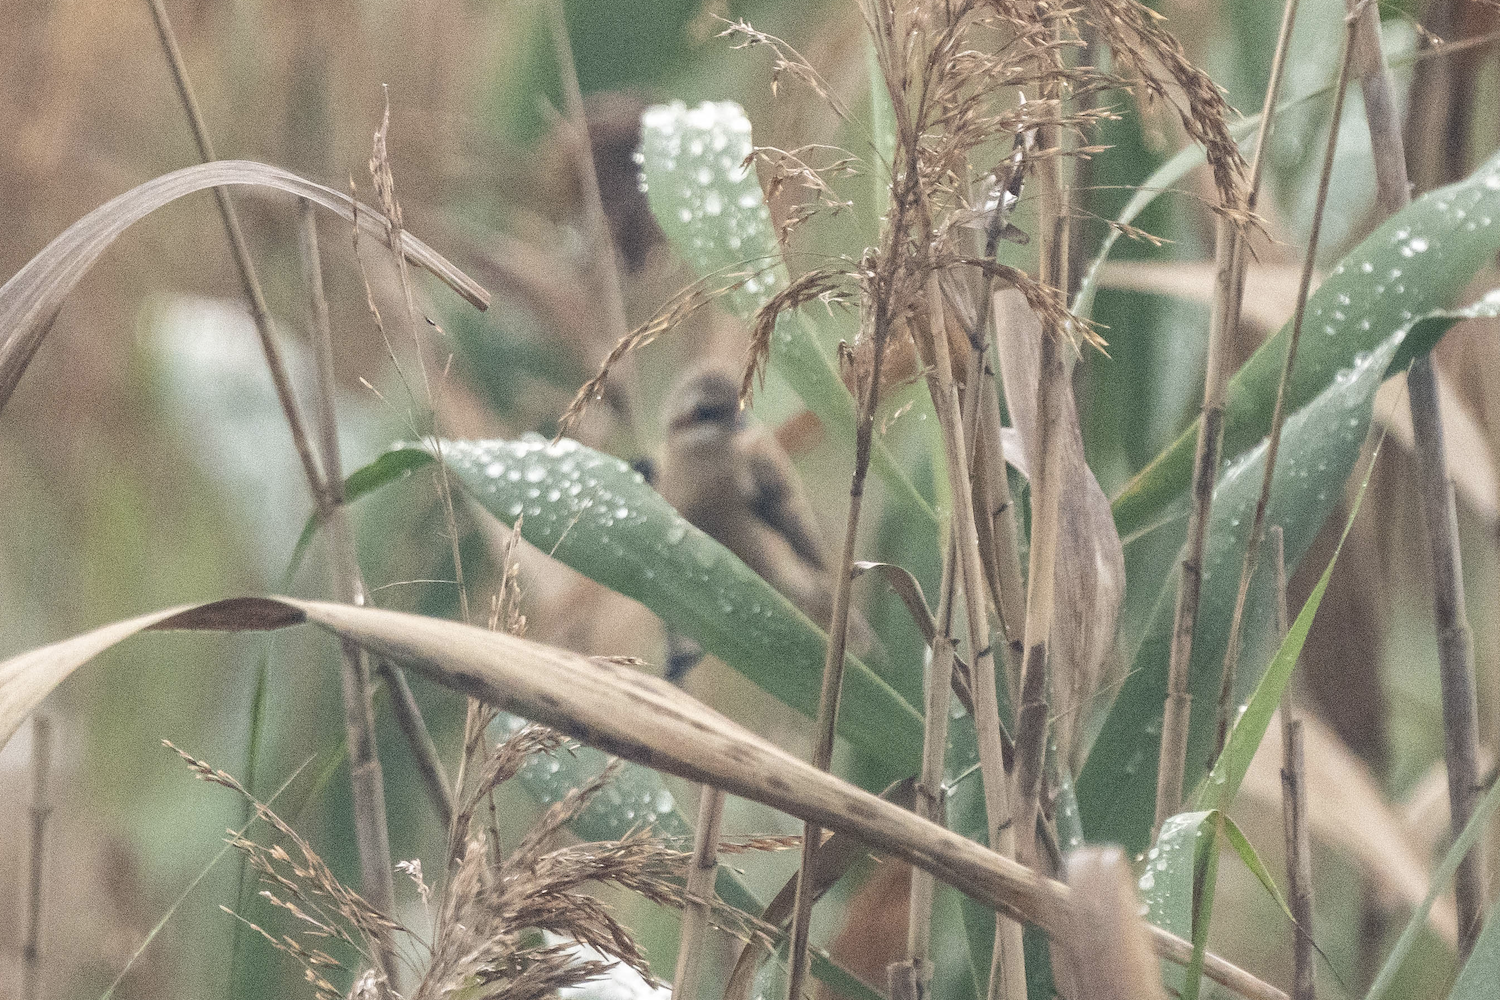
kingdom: Animalia
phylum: Chordata
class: Aves
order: Passeriformes
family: Remizidae
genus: Remiz
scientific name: Remiz consobrinus
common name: Chinese penduline tit
